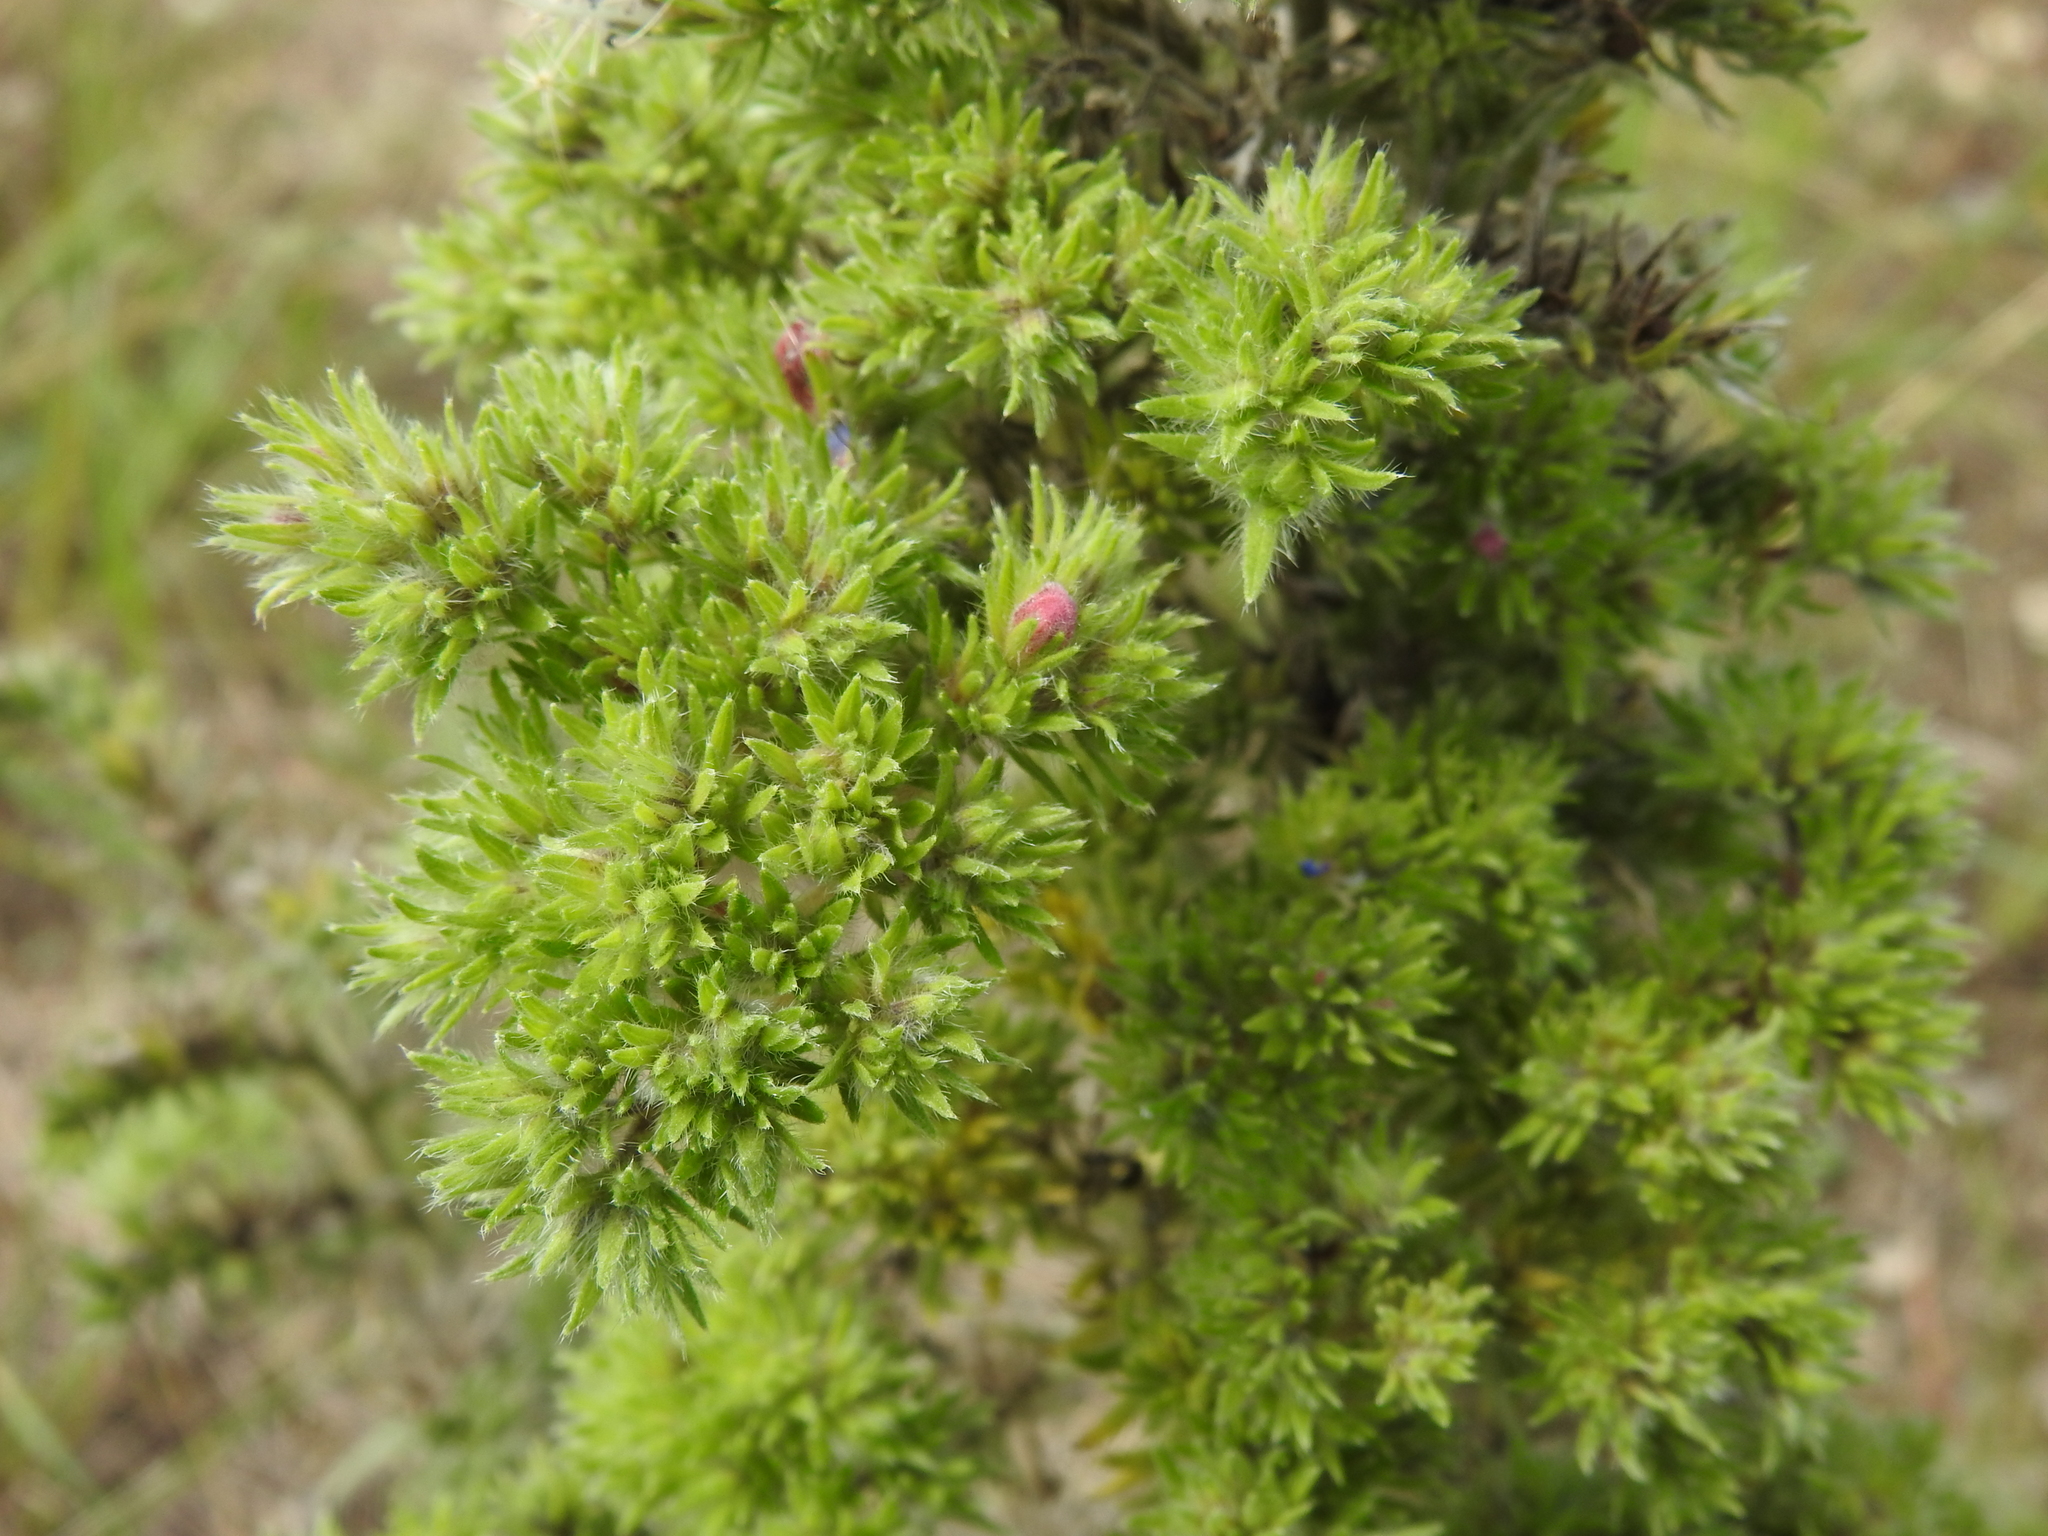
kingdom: Animalia
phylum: Arthropoda
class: Arachnida
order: Trombidiformes
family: Eriophyidae
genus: Aceria
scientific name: Aceria echii
